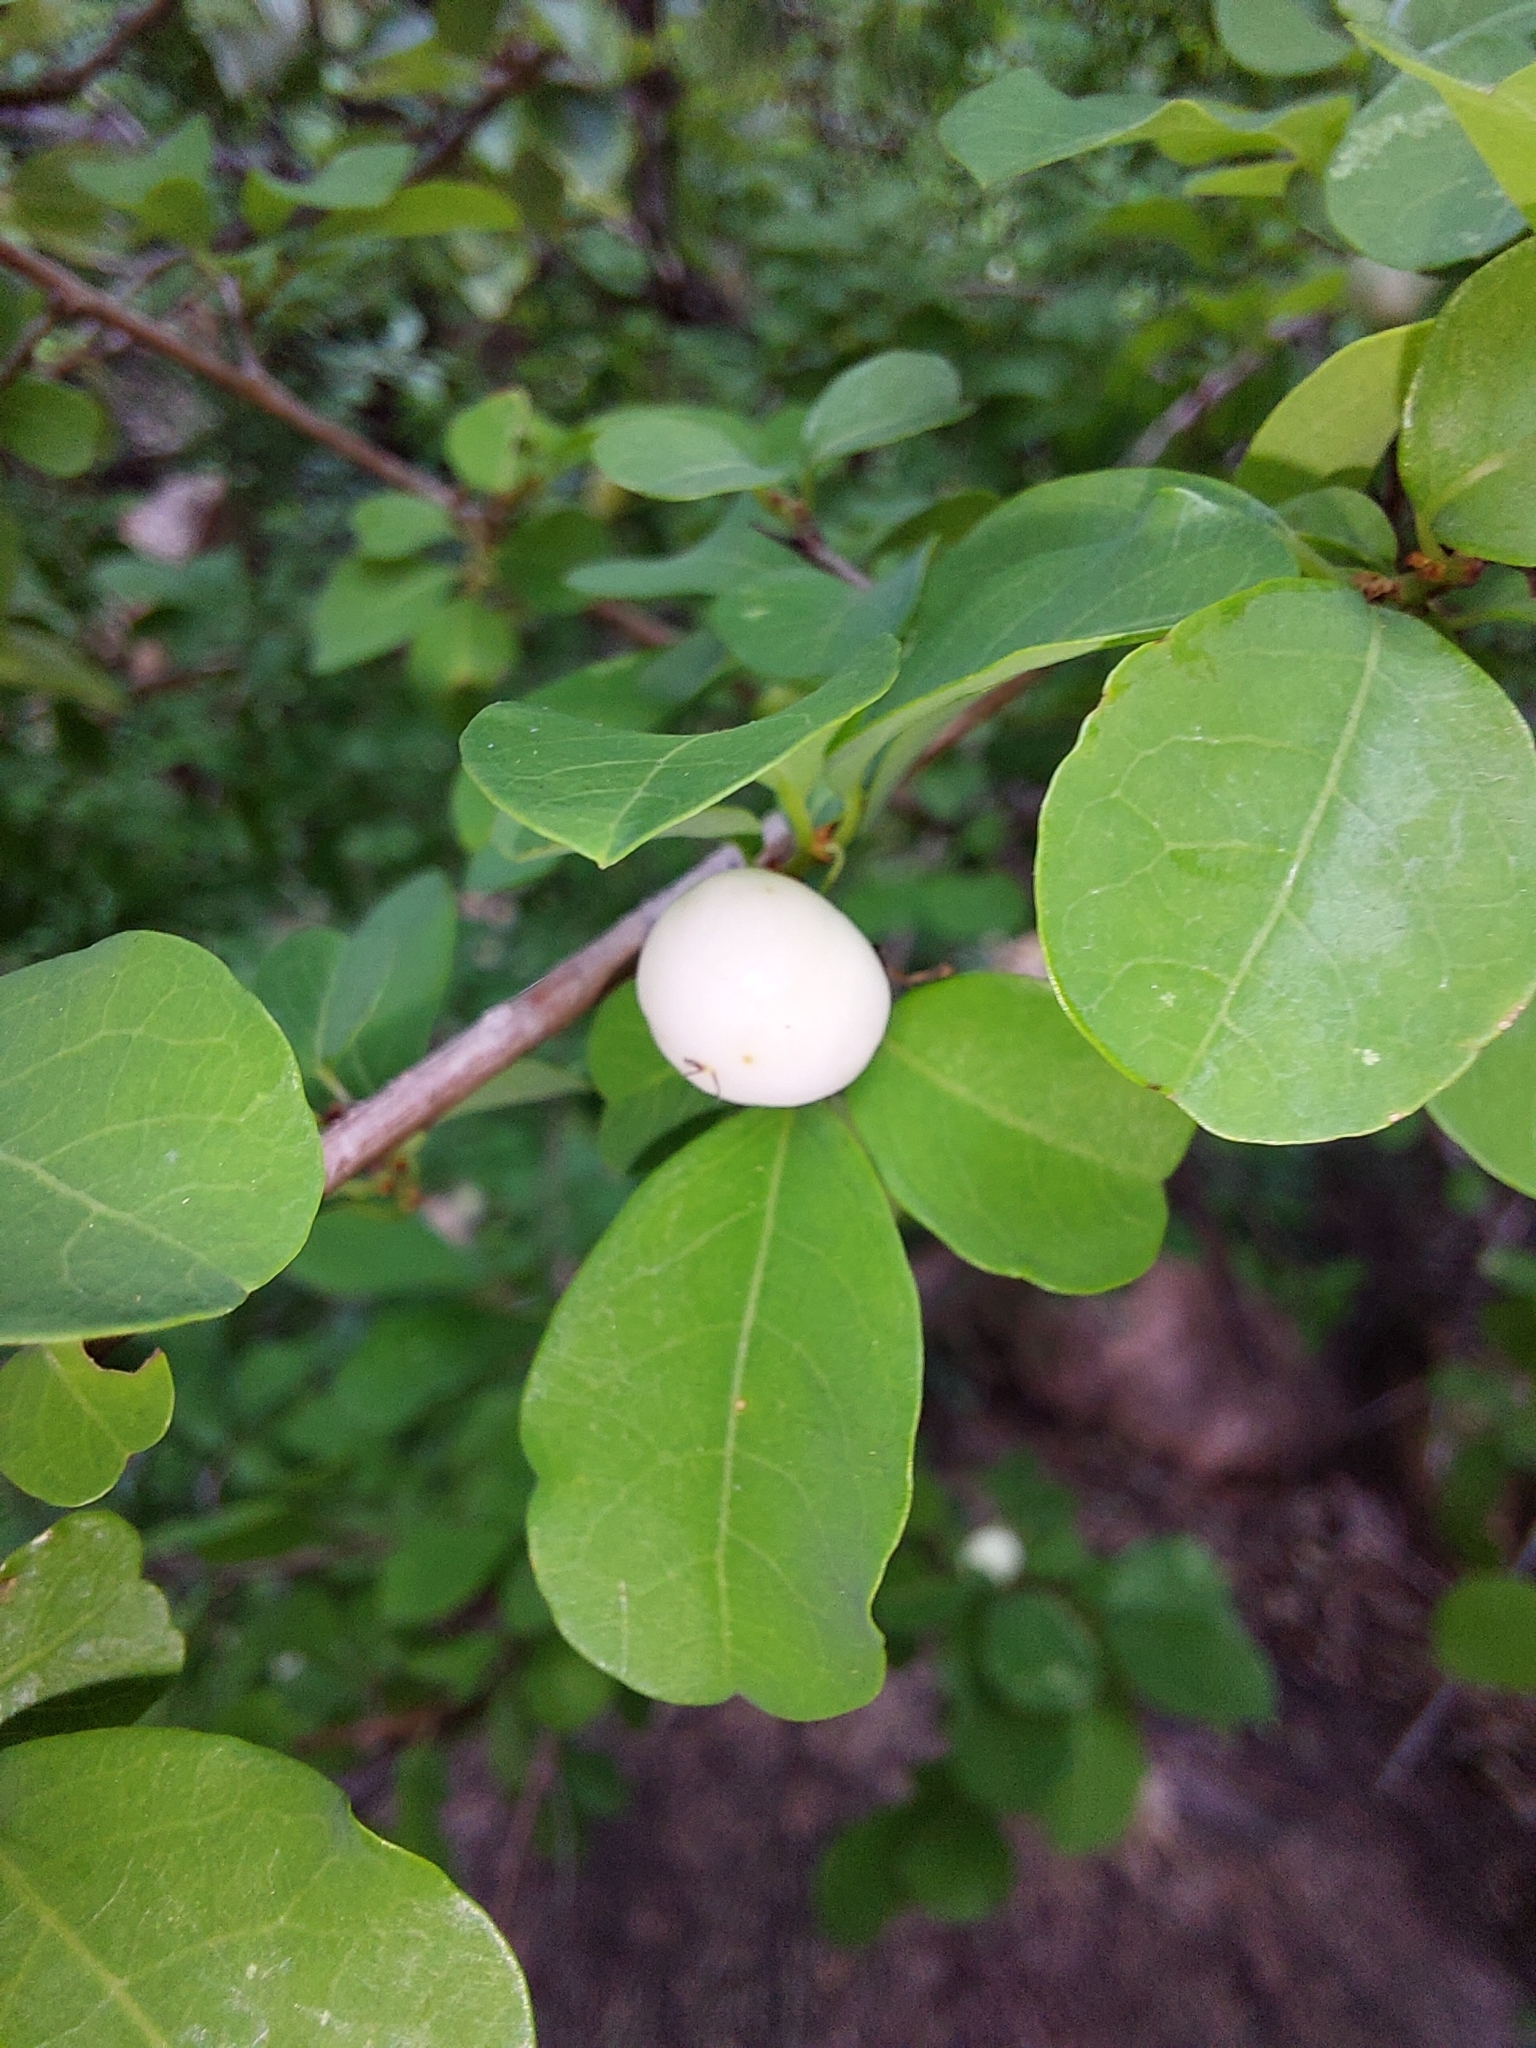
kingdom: Plantae
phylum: Tracheophyta
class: Magnoliopsida
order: Malpighiales
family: Phyllanthaceae
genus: Flueggea
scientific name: Flueggea virosa
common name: Common bushweed
